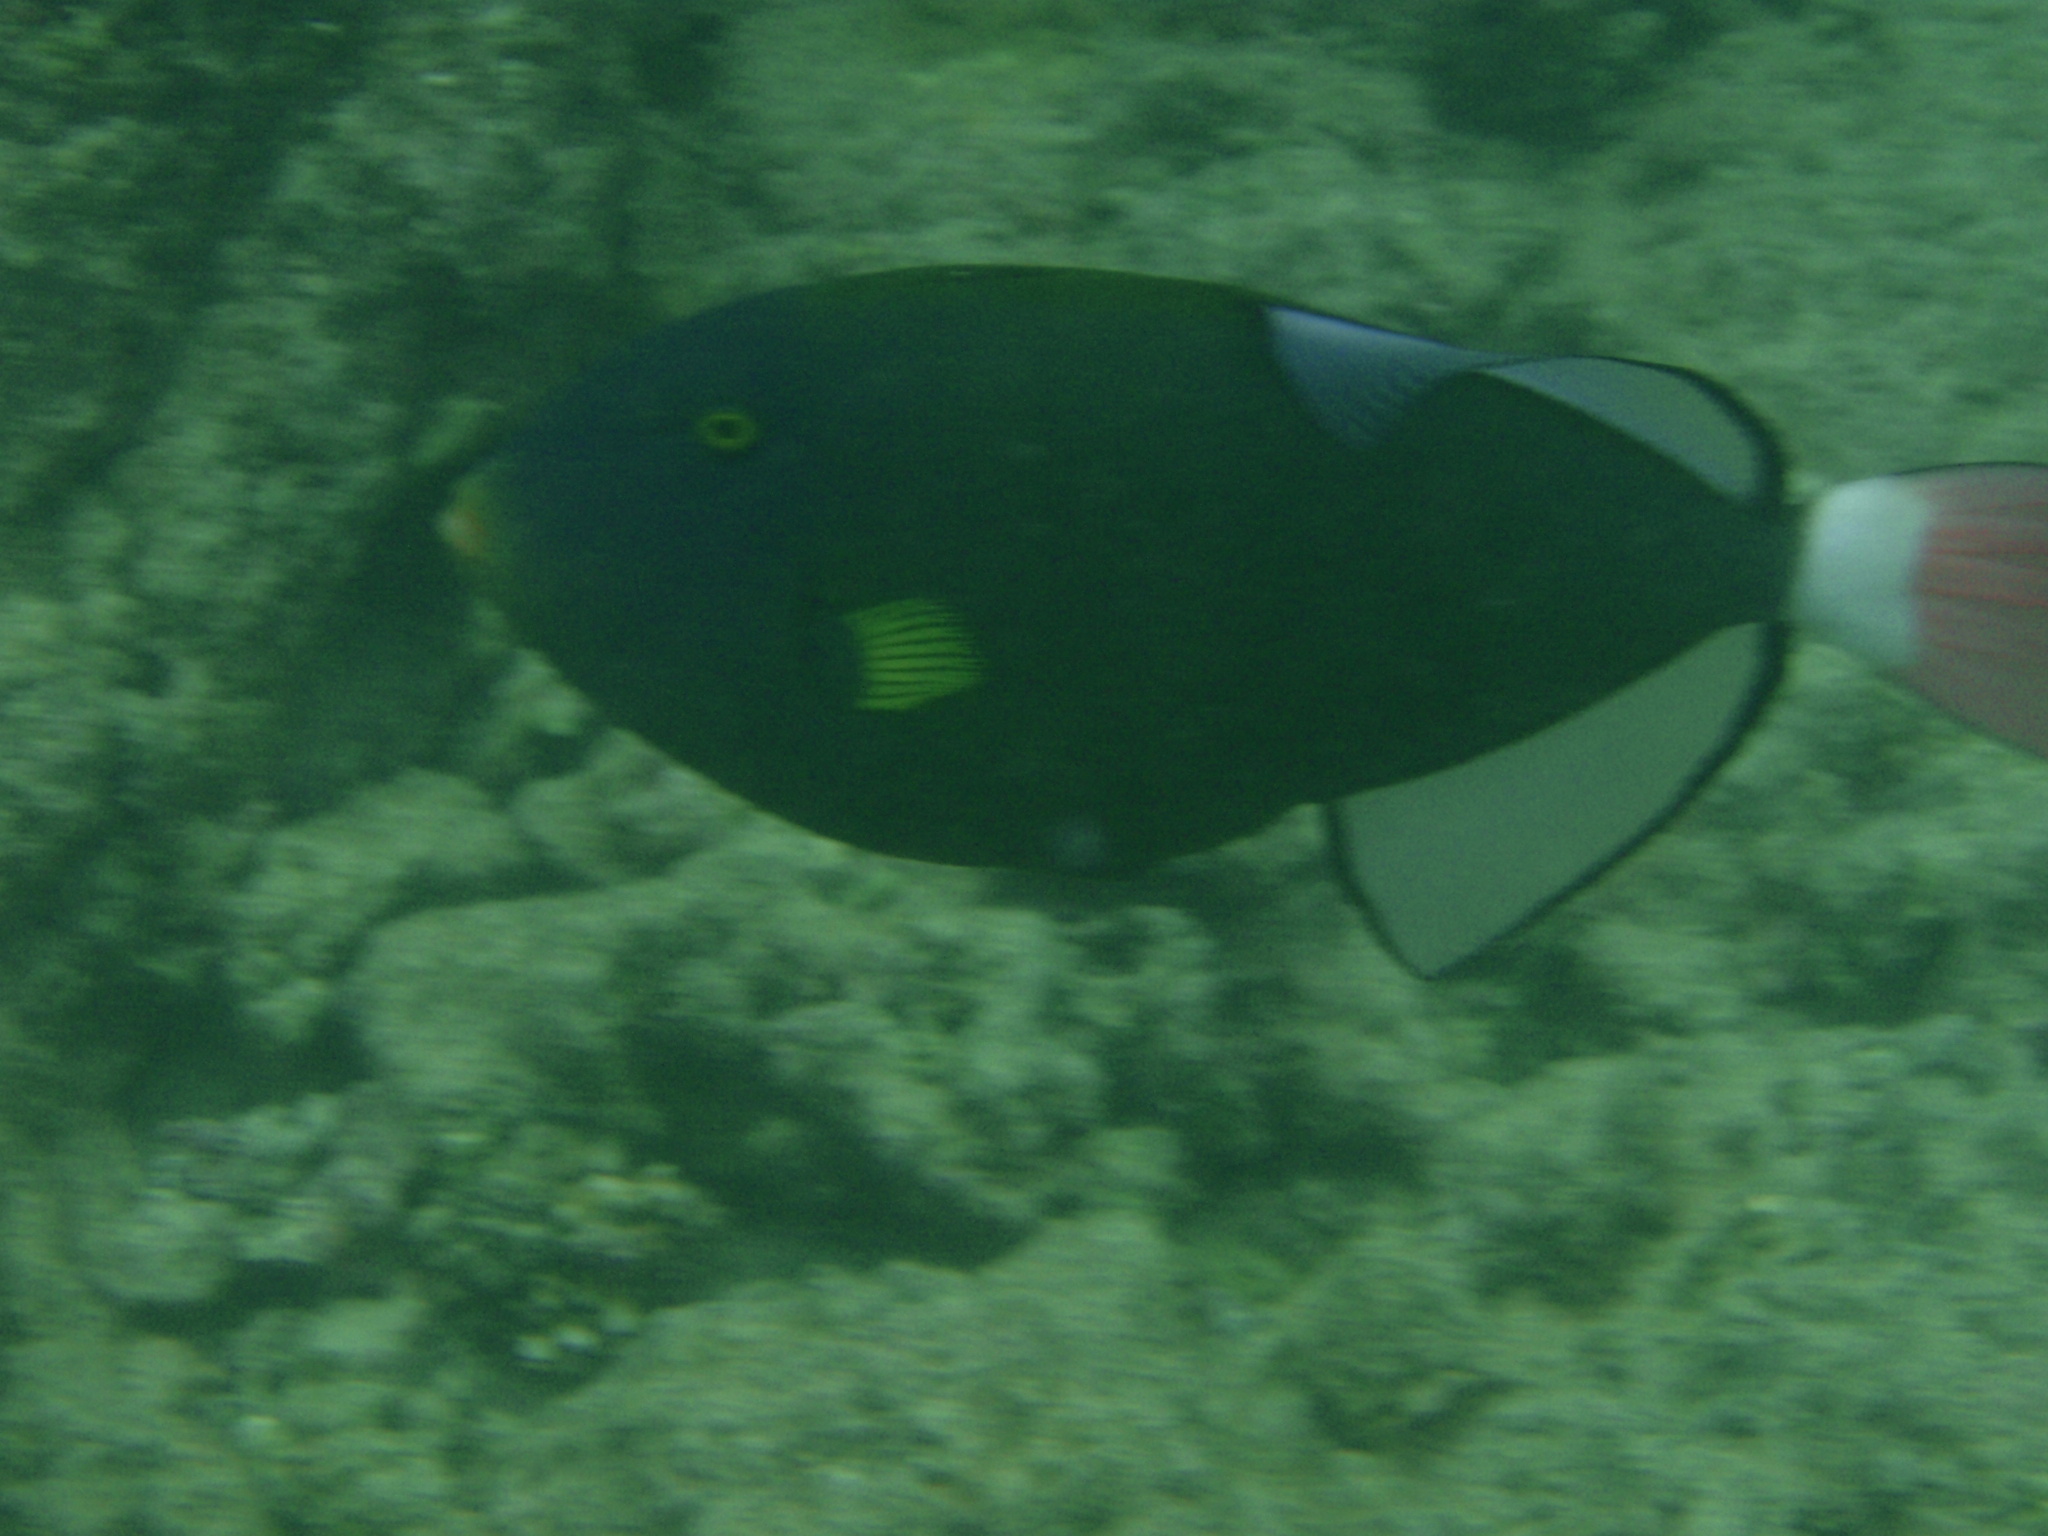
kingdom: Animalia
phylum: Chordata
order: Tetraodontiformes
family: Balistidae
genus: Melichthys
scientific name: Melichthys vidua
